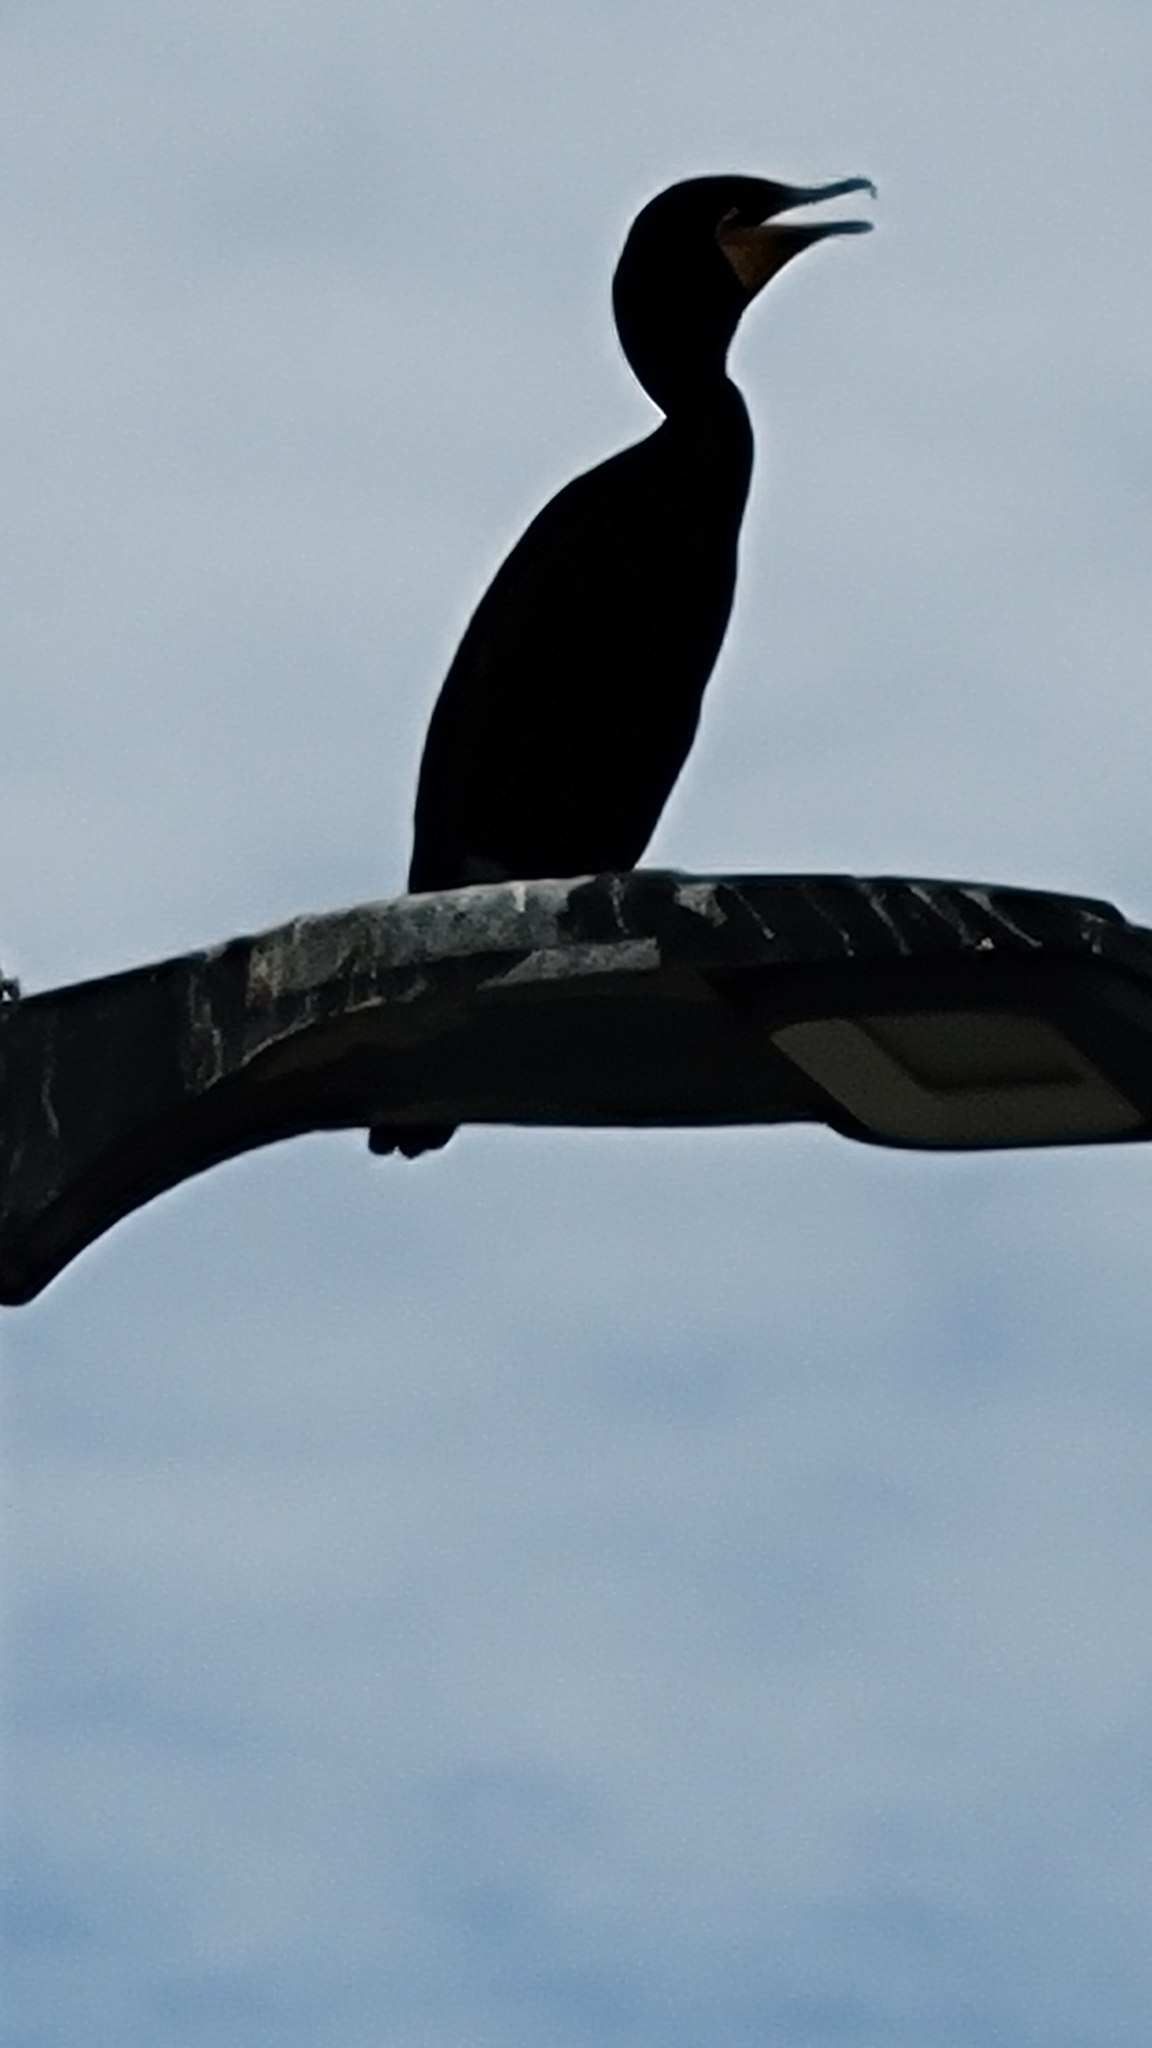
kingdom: Animalia
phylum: Chordata
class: Aves
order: Suliformes
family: Phalacrocoracidae
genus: Phalacrocorax
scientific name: Phalacrocorax auritus
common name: Double-crested cormorant
